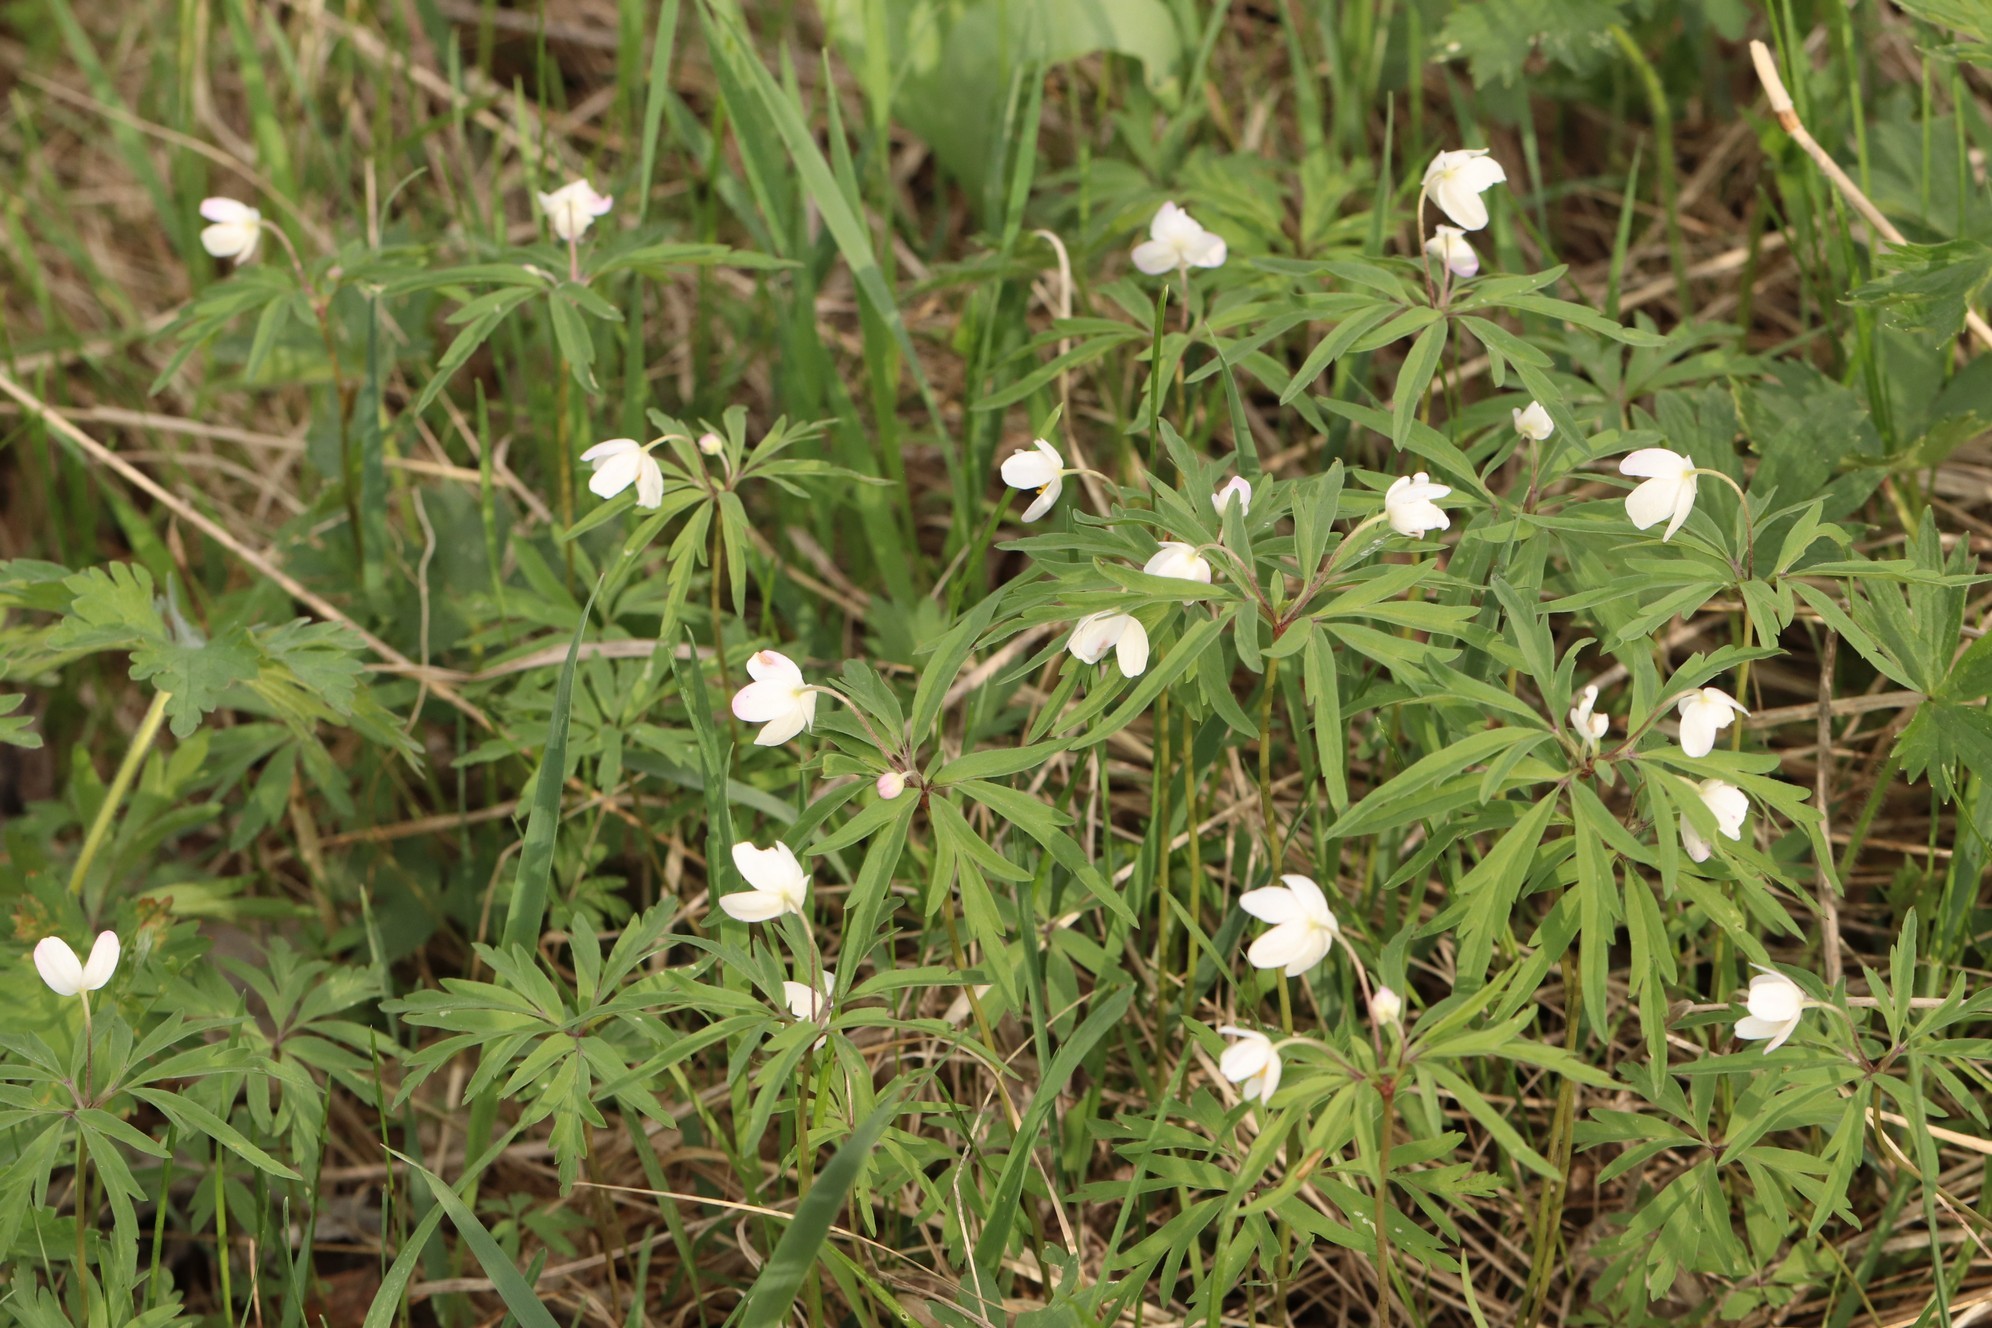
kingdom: Plantae
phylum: Tracheophyta
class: Magnoliopsida
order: Ranunculales
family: Ranunculaceae
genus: Anemone
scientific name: Anemone caerulea
